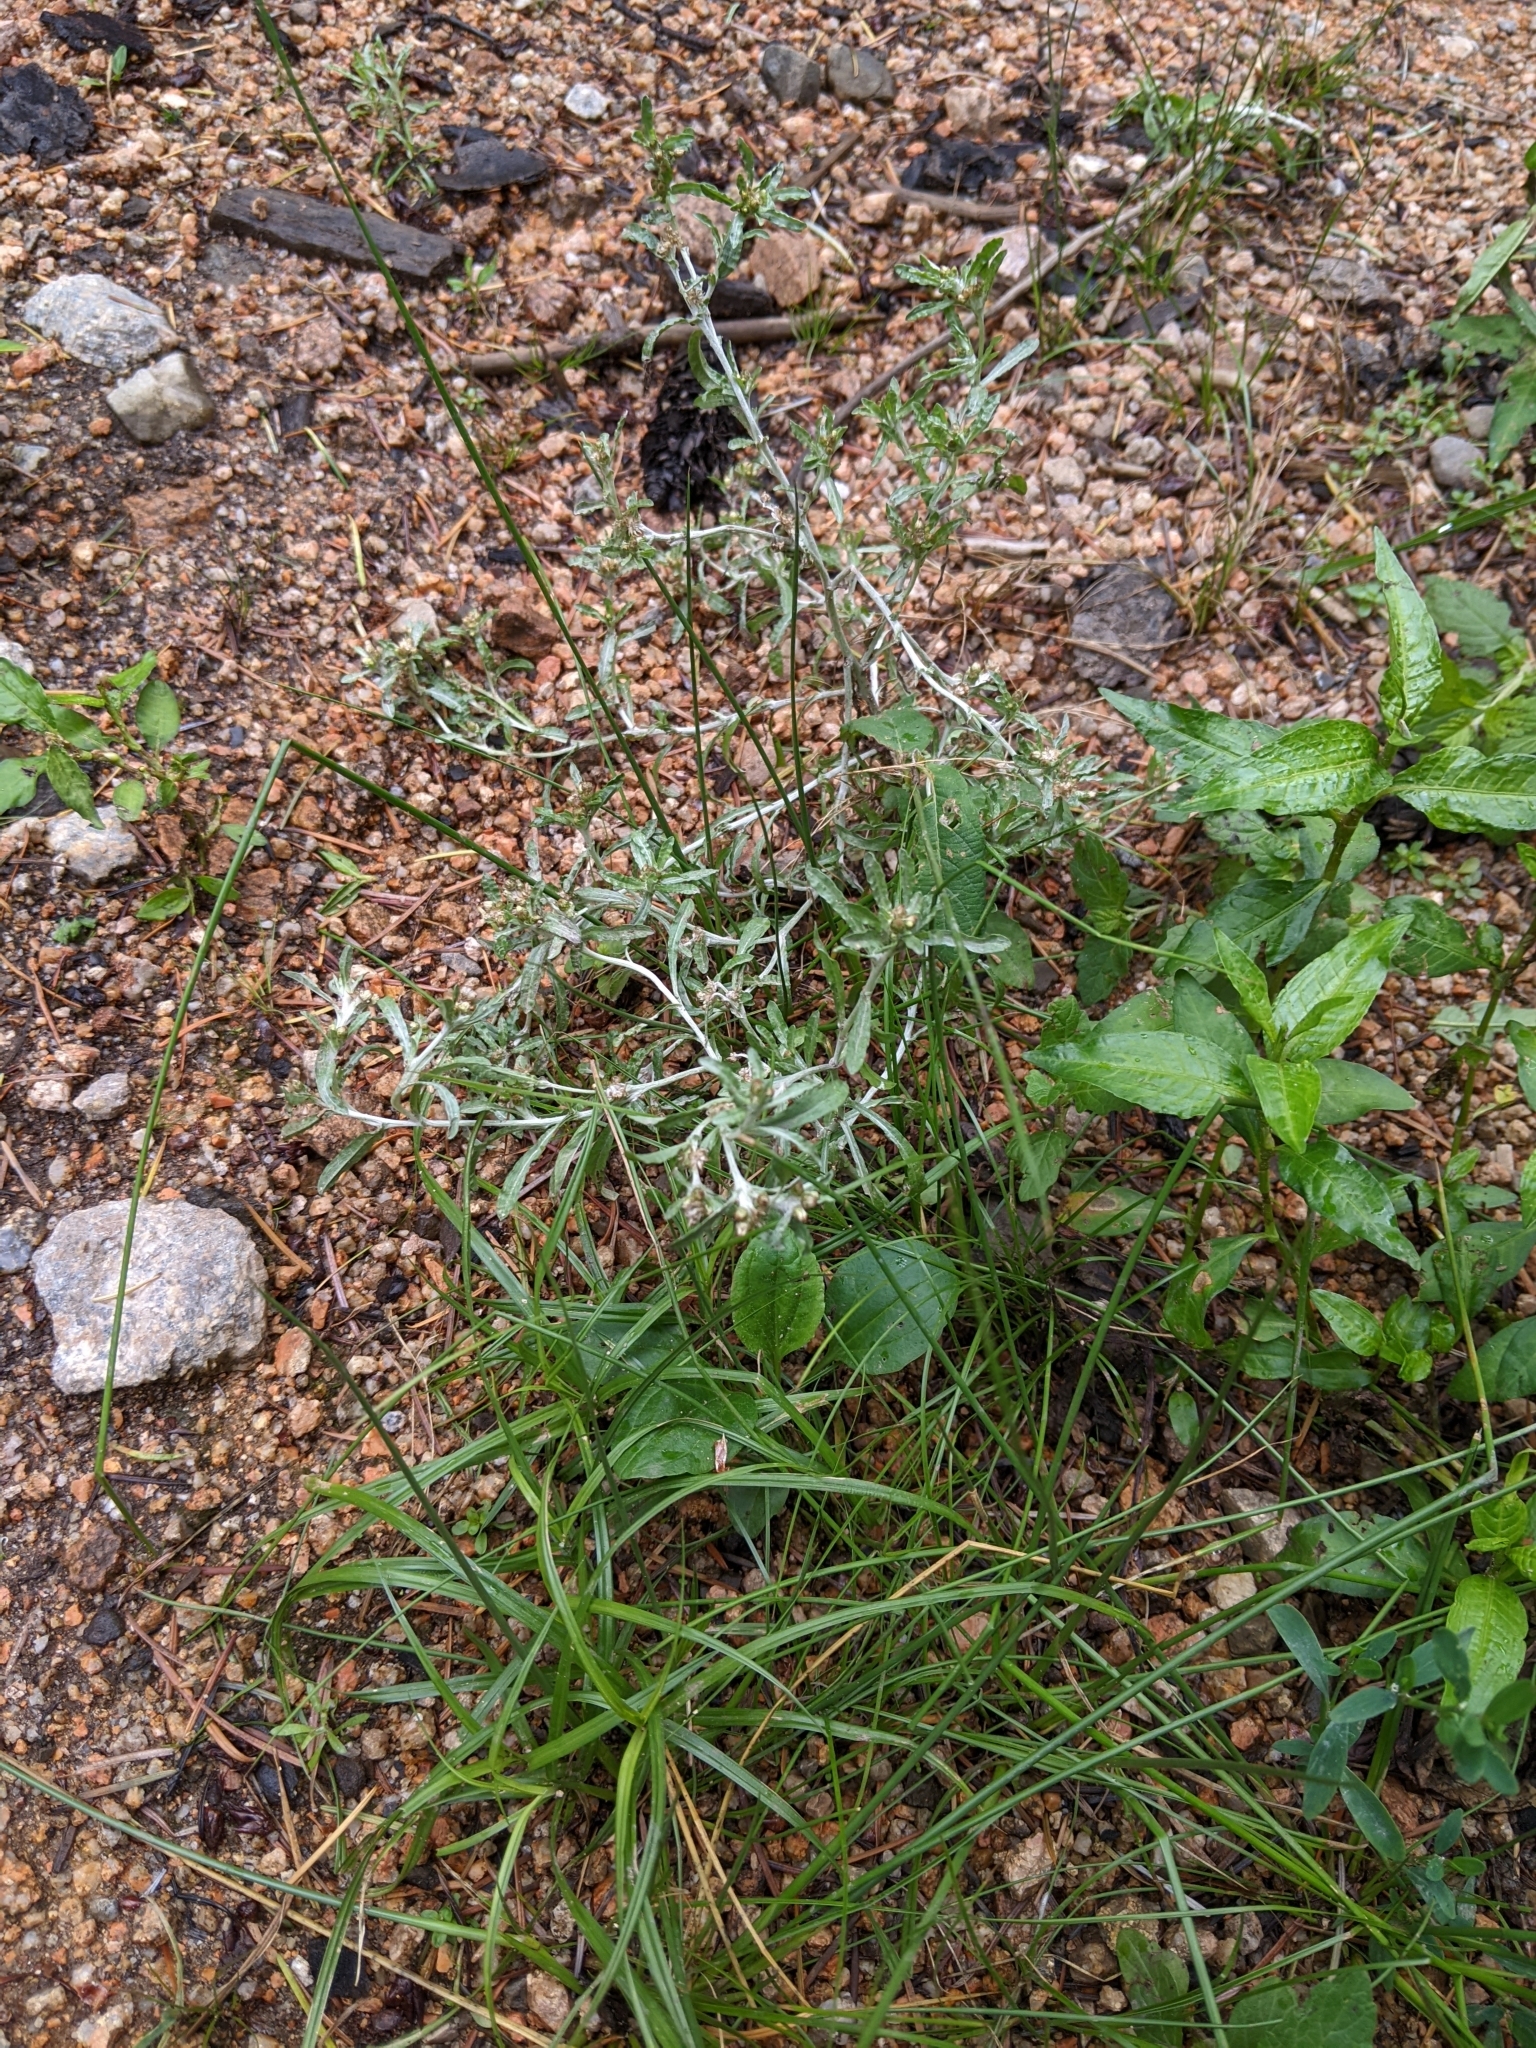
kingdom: Plantae
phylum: Tracheophyta
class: Magnoliopsida
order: Asterales
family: Asteraceae
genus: Gnaphalium
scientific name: Gnaphalium uliginosum
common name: Marsh cudweed
